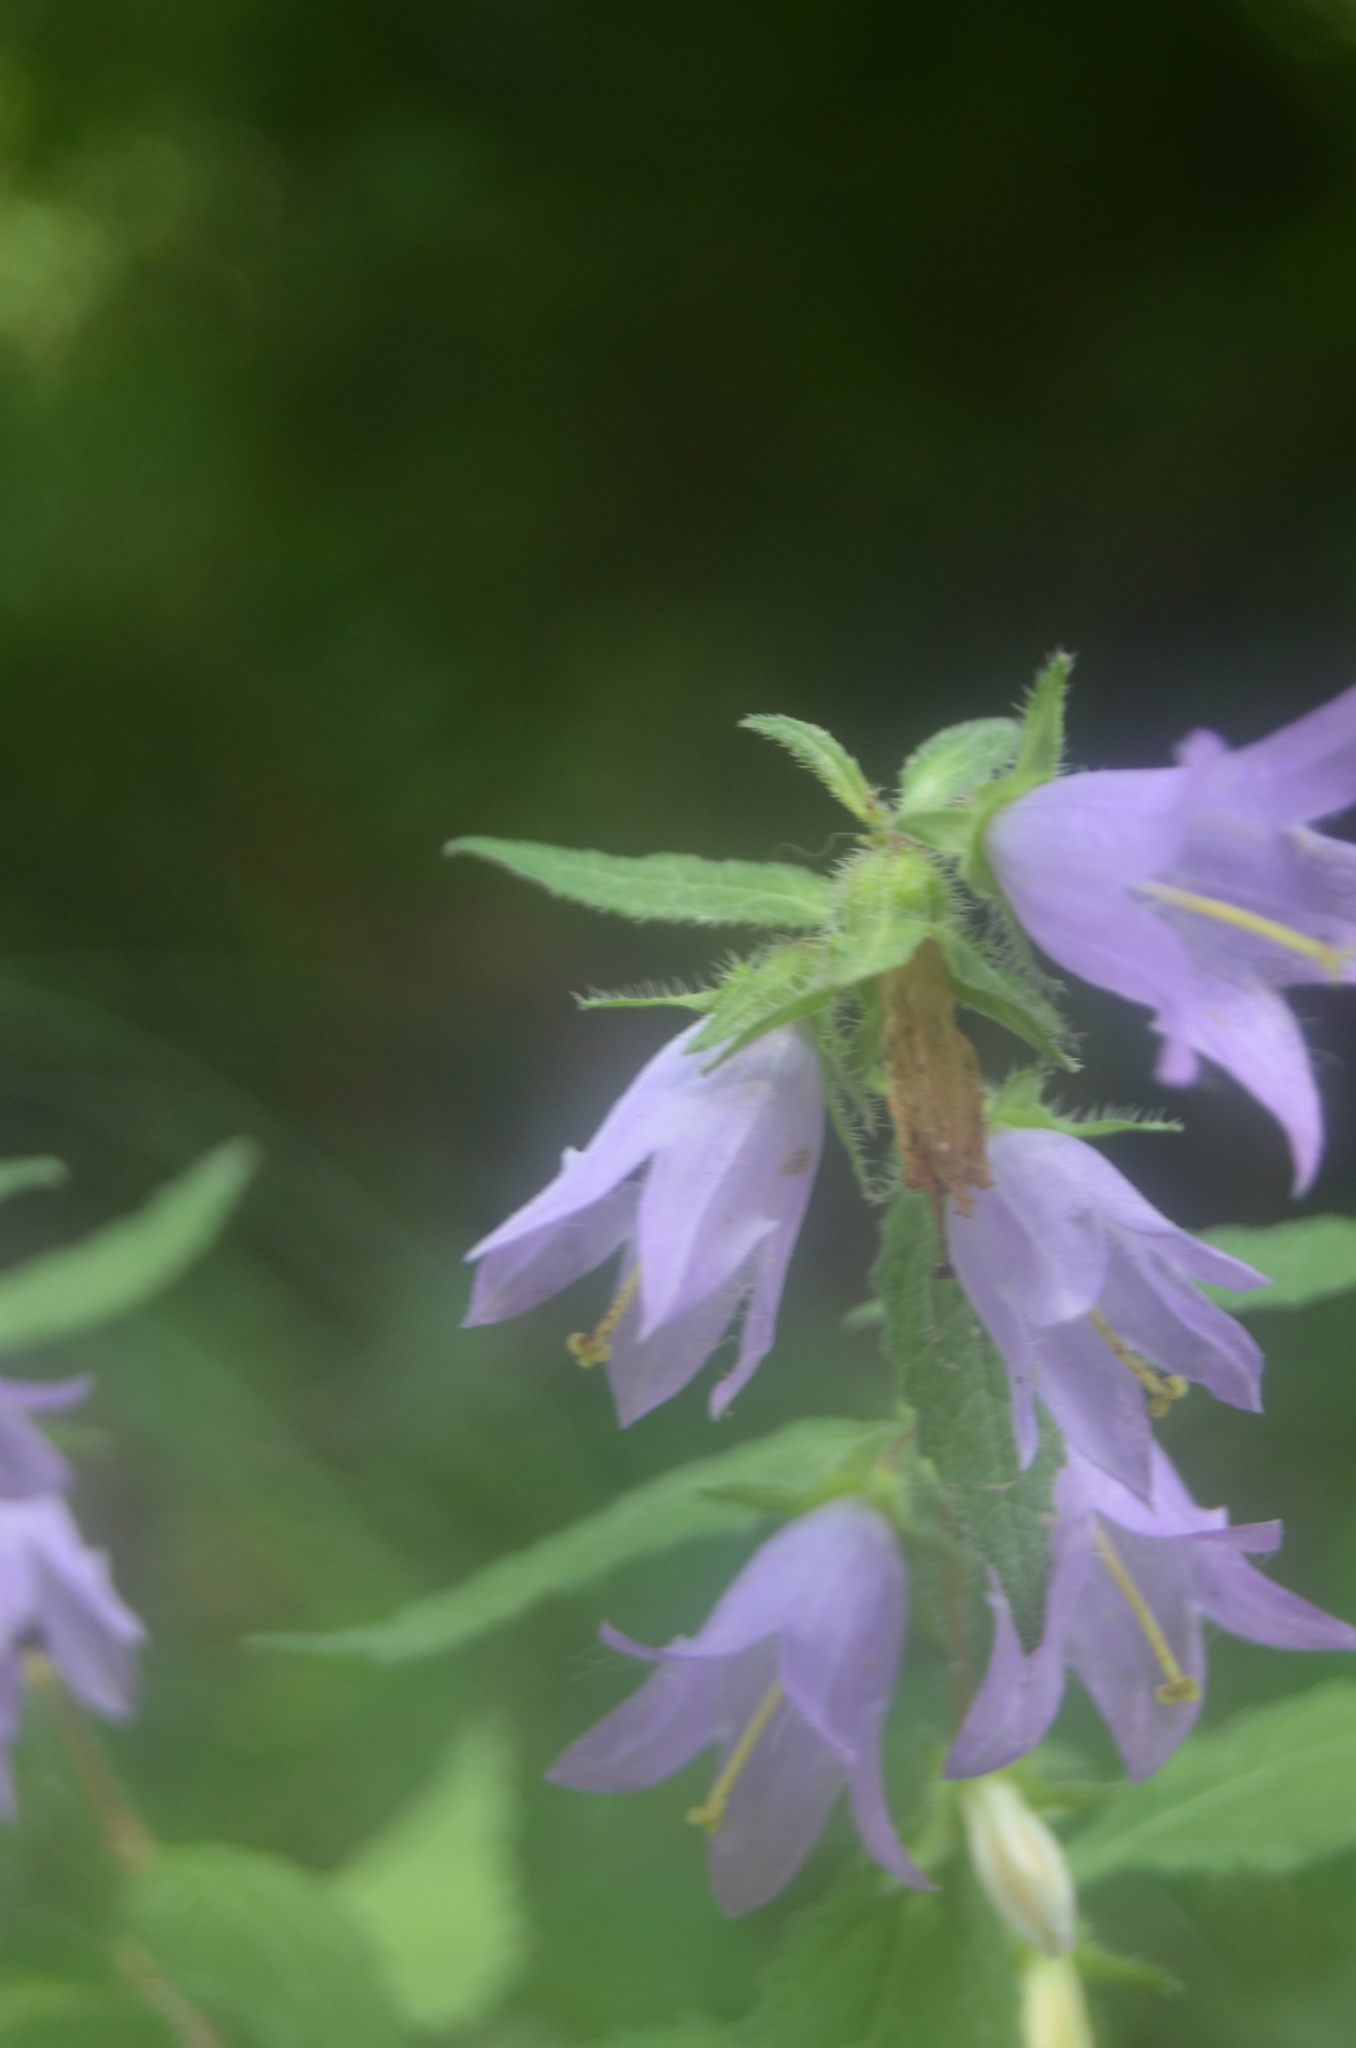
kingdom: Plantae
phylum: Tracheophyta
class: Magnoliopsida
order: Asterales
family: Campanulaceae
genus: Campanula
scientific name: Campanula trachelium
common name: Nettle-leaved bellflower
